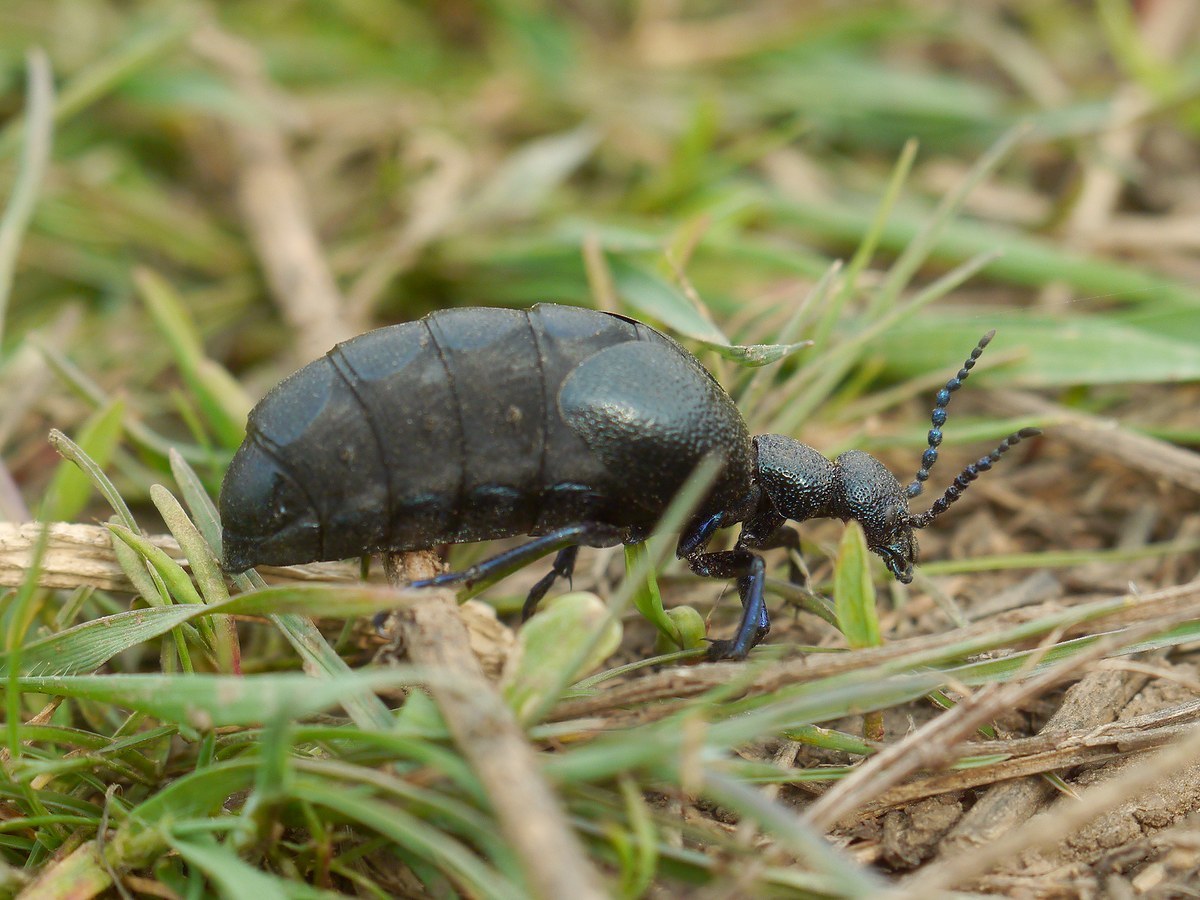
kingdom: Animalia
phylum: Arthropoda
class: Insecta
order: Coleoptera
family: Meloidae
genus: Meloe
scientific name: Meloe proscarabaeus
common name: Black oil-beetle
